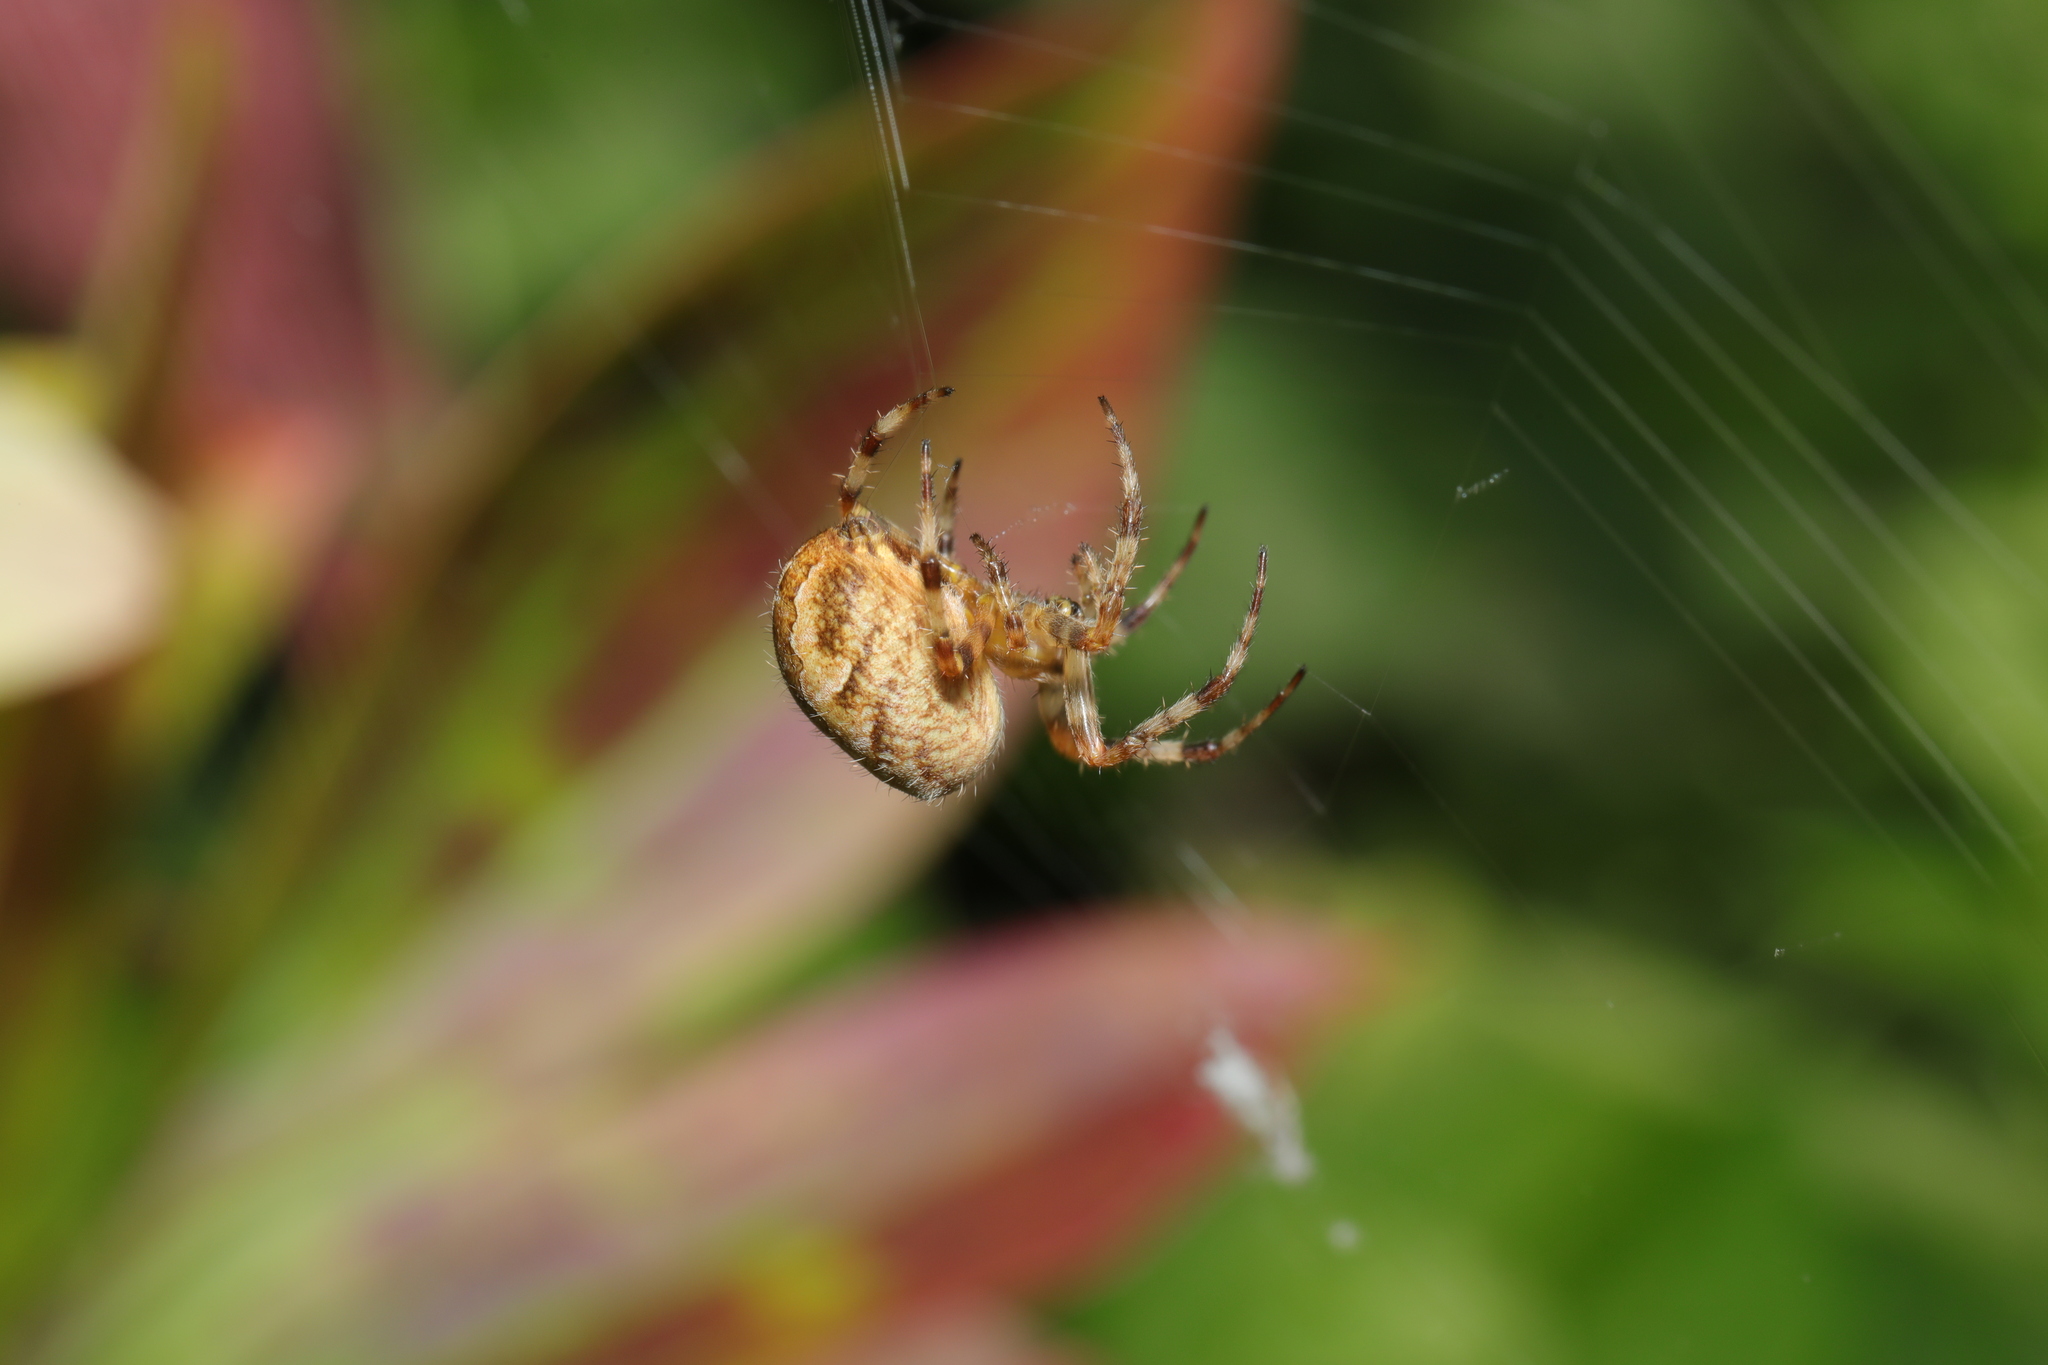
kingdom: Animalia
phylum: Arthropoda
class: Arachnida
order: Araneae
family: Araneidae
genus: Araneus
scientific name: Araneus diadematus
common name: Cross orbweaver
